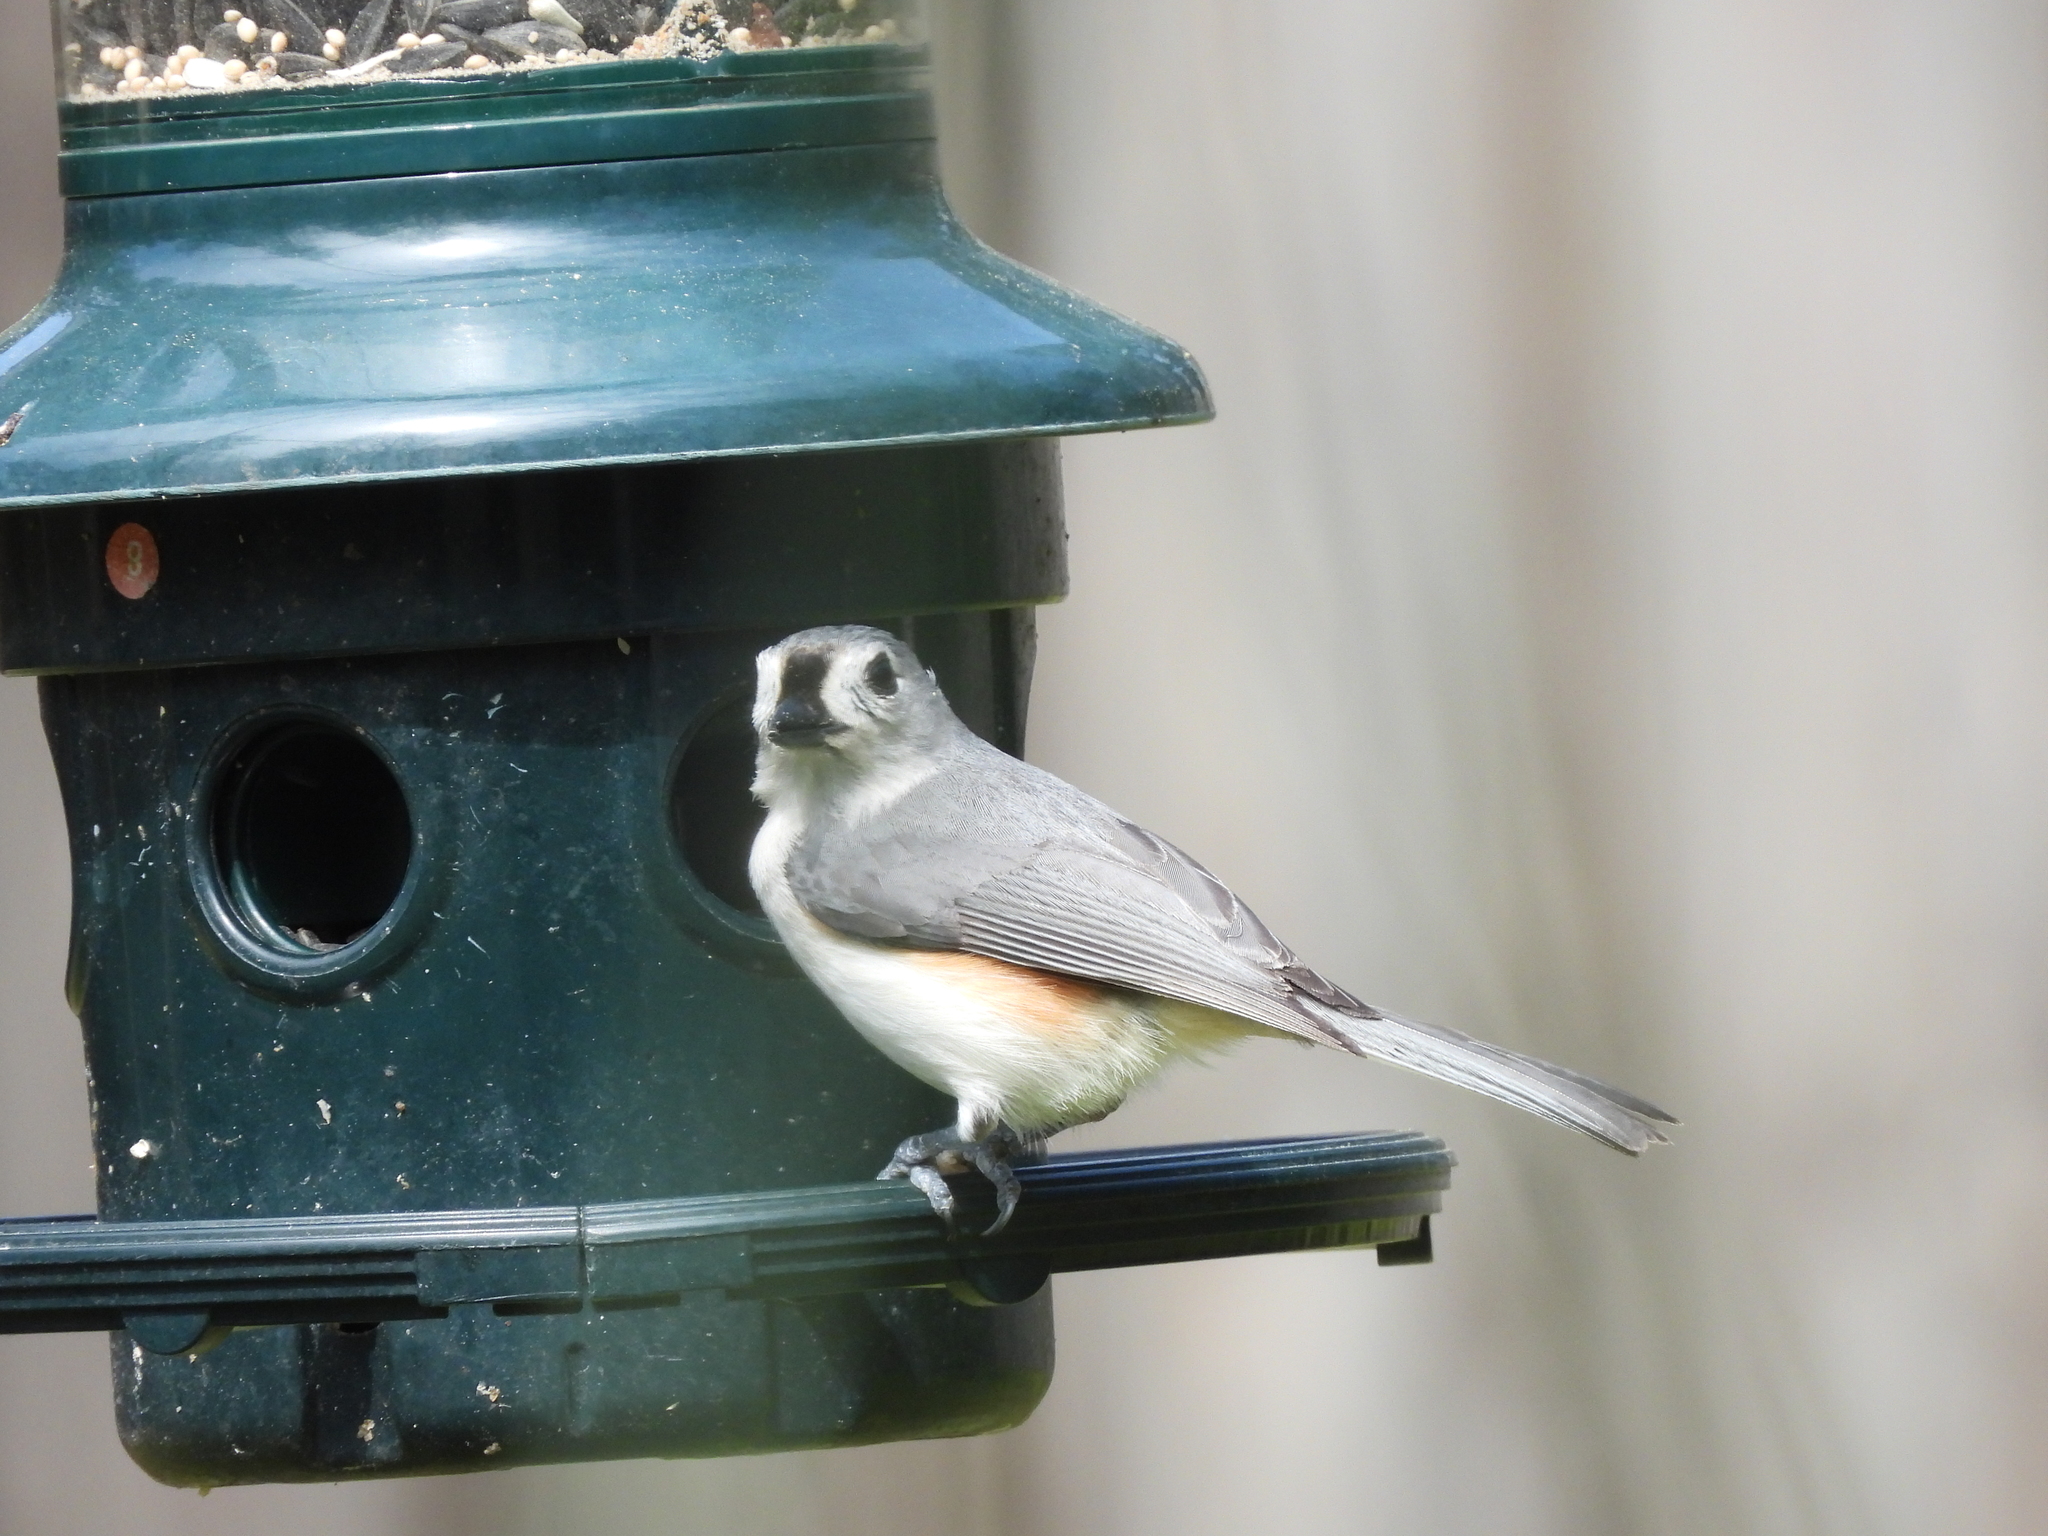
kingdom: Animalia
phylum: Chordata
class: Aves
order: Passeriformes
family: Paridae
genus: Baeolophus
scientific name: Baeolophus bicolor
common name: Tufted titmouse
